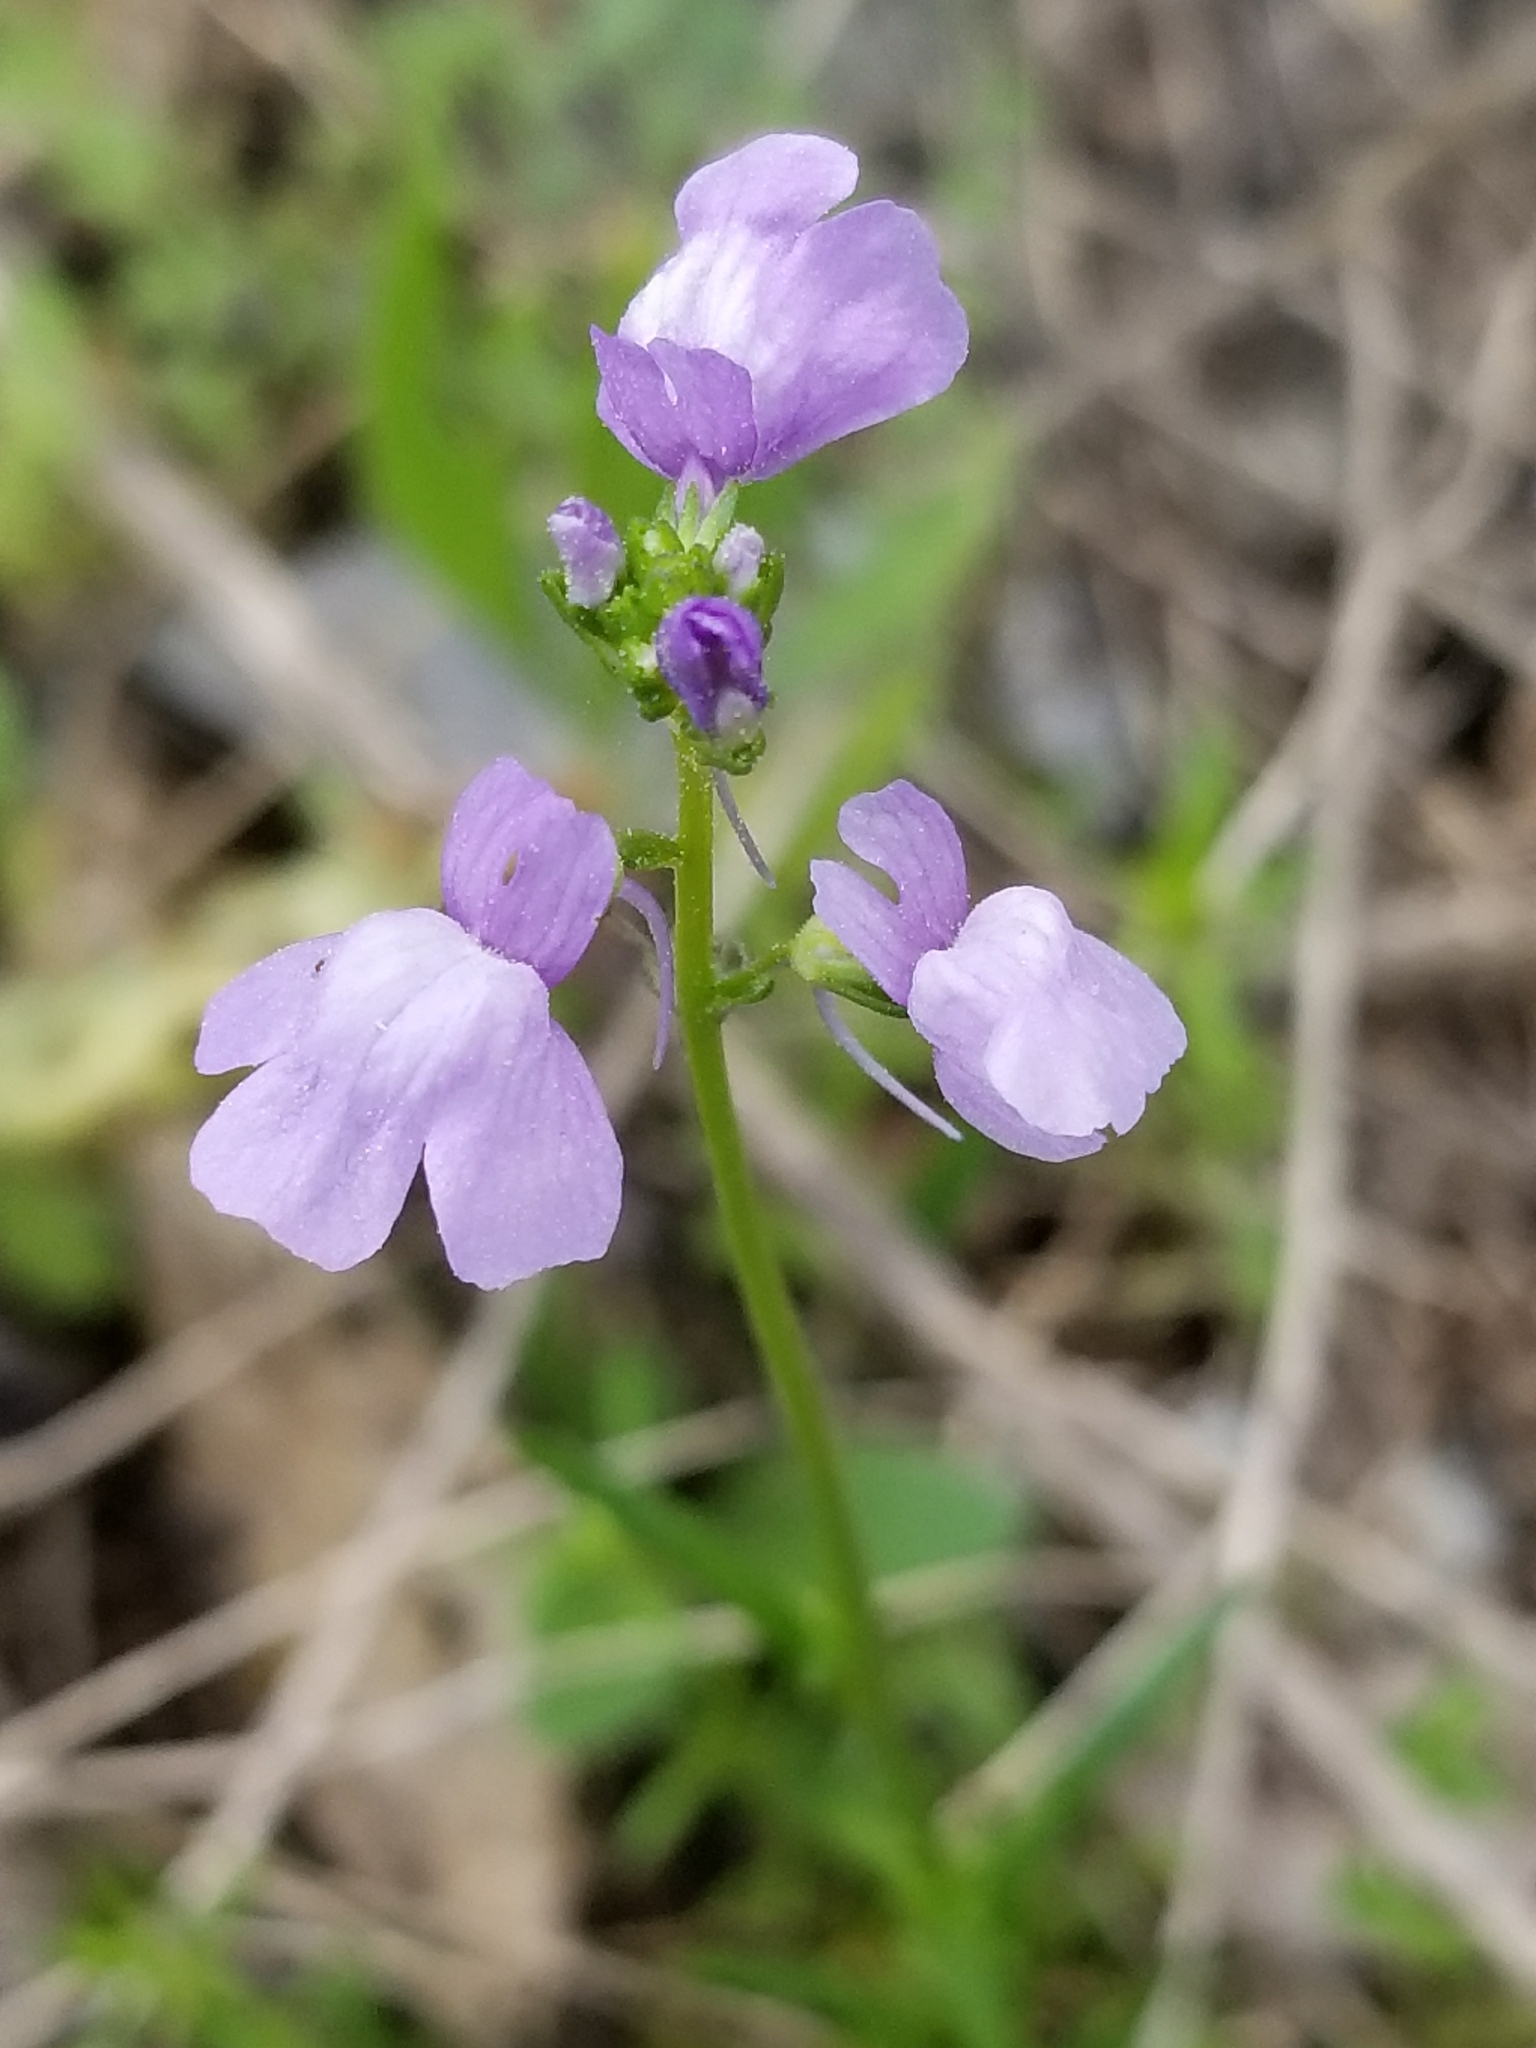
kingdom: Plantae
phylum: Tracheophyta
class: Magnoliopsida
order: Lamiales
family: Plantaginaceae
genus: Nuttallanthus
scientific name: Nuttallanthus texanus
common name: Texas toadflax
